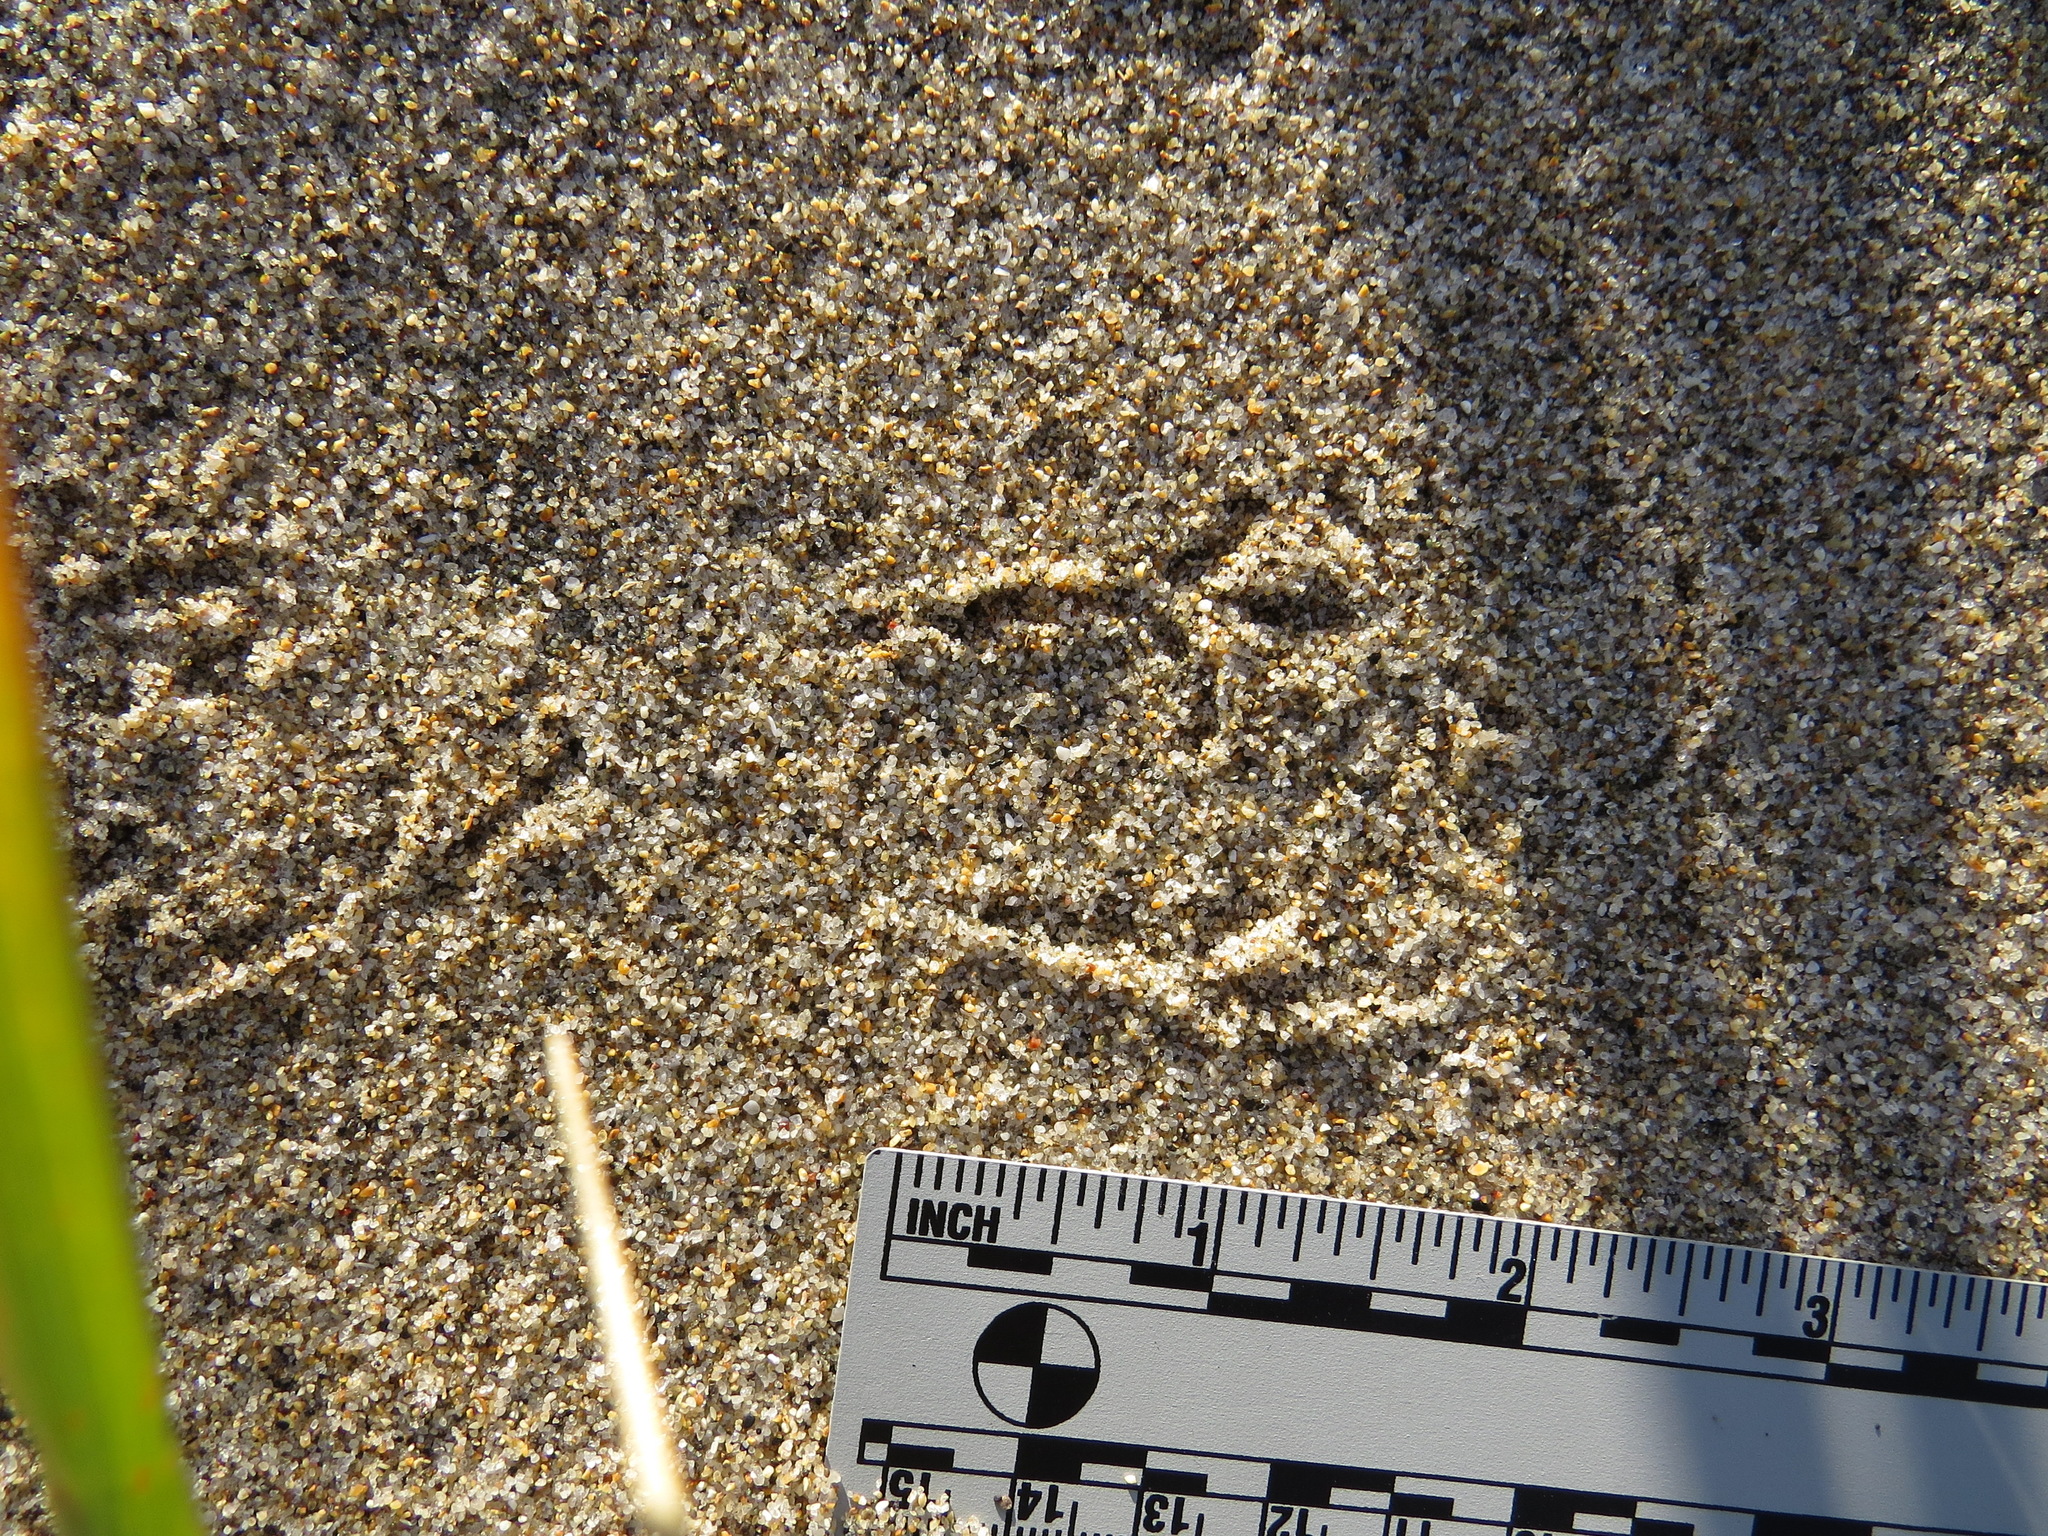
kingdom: Animalia
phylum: Chordata
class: Aves
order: Passeriformes
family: Passerellidae
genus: Passerculus
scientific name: Passerculus sandwichensis
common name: Savannah sparrow
